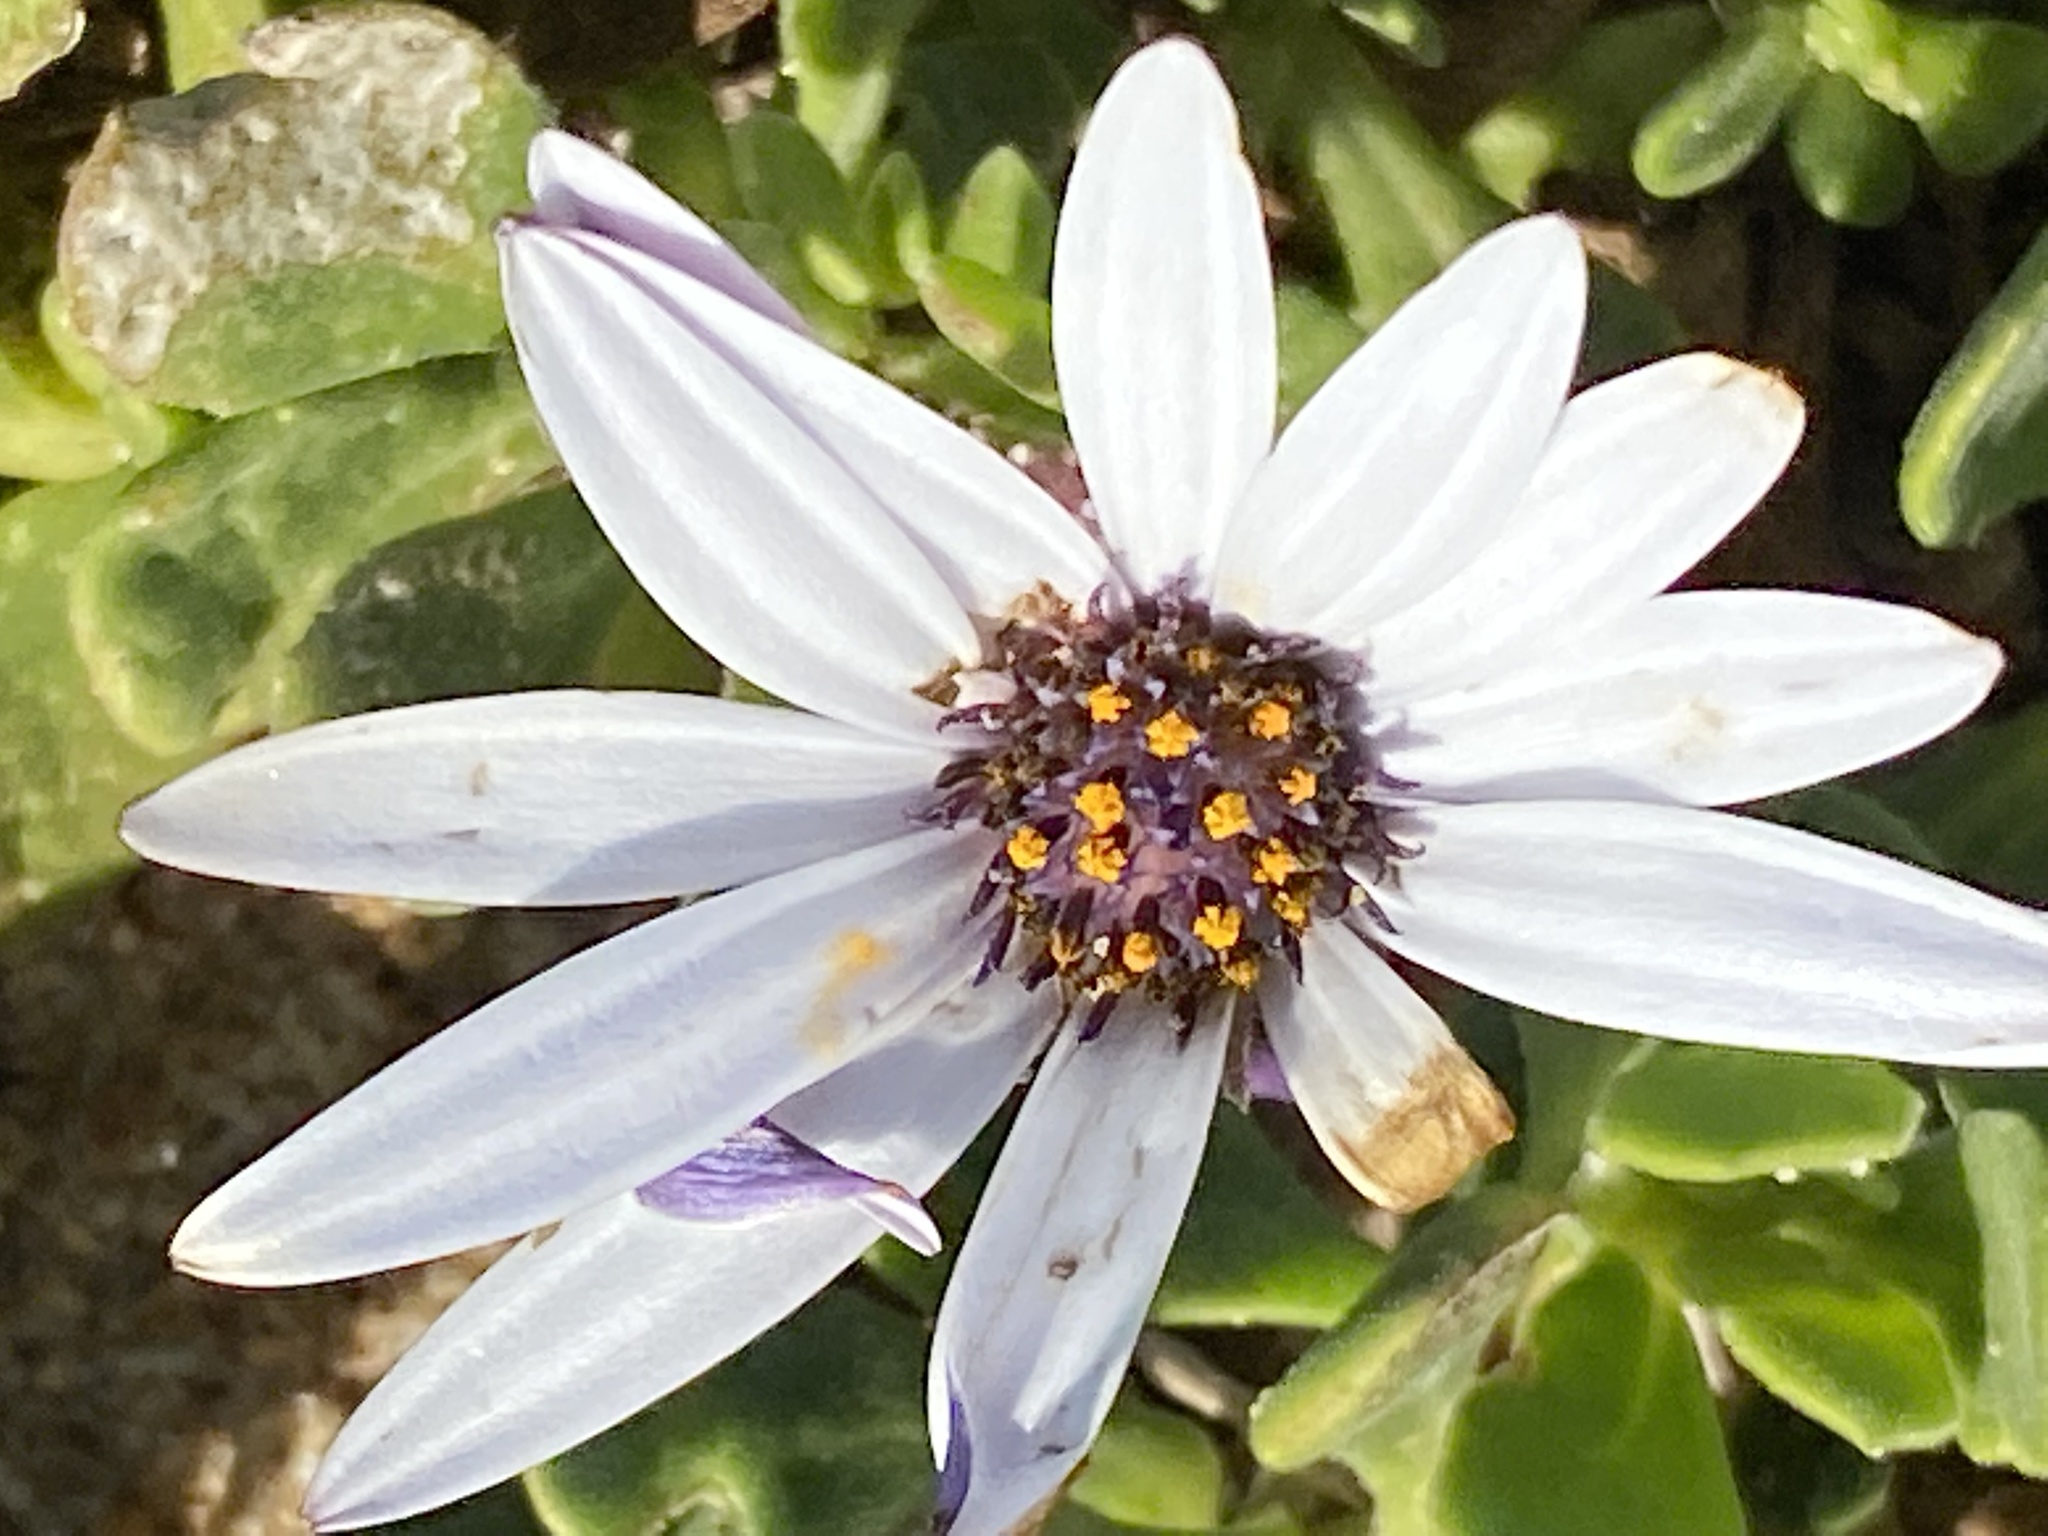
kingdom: Plantae
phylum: Tracheophyta
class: Magnoliopsida
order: Asterales
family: Asteraceae
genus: Dimorphotheca
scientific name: Dimorphotheca fruticosa
